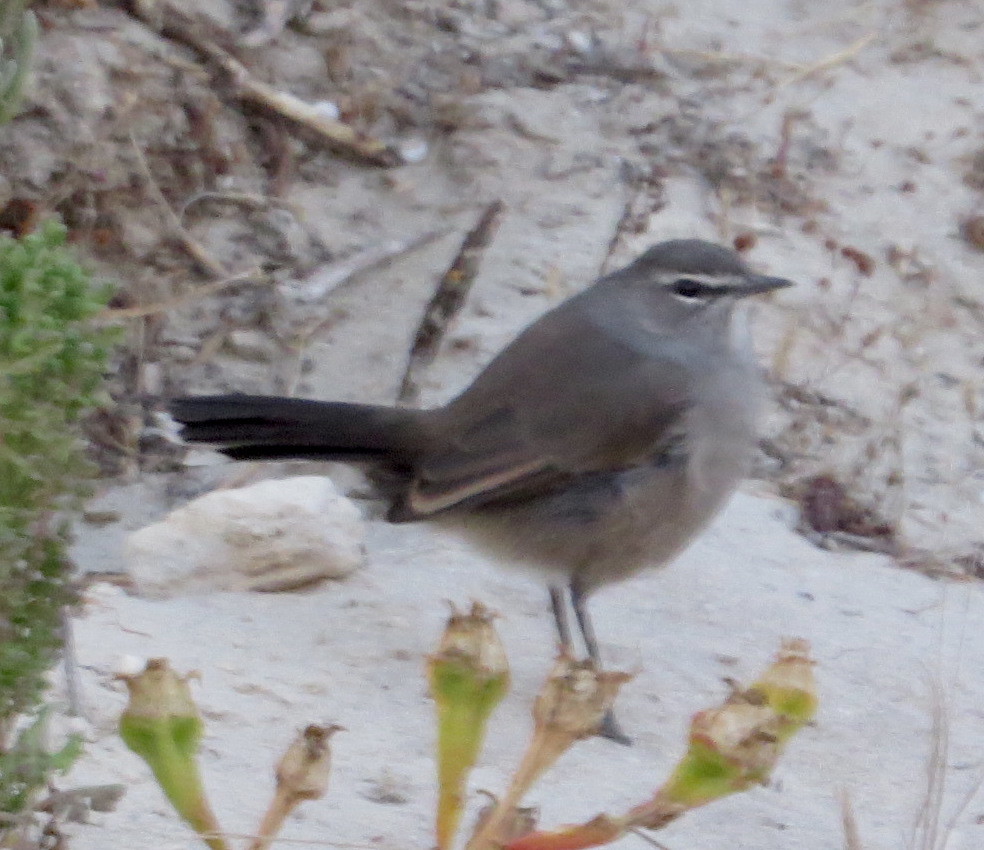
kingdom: Animalia
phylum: Chordata
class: Aves
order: Passeriformes
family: Muscicapidae
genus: Erythropygia
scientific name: Erythropygia coryphoeus
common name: Karoo scrub robin
